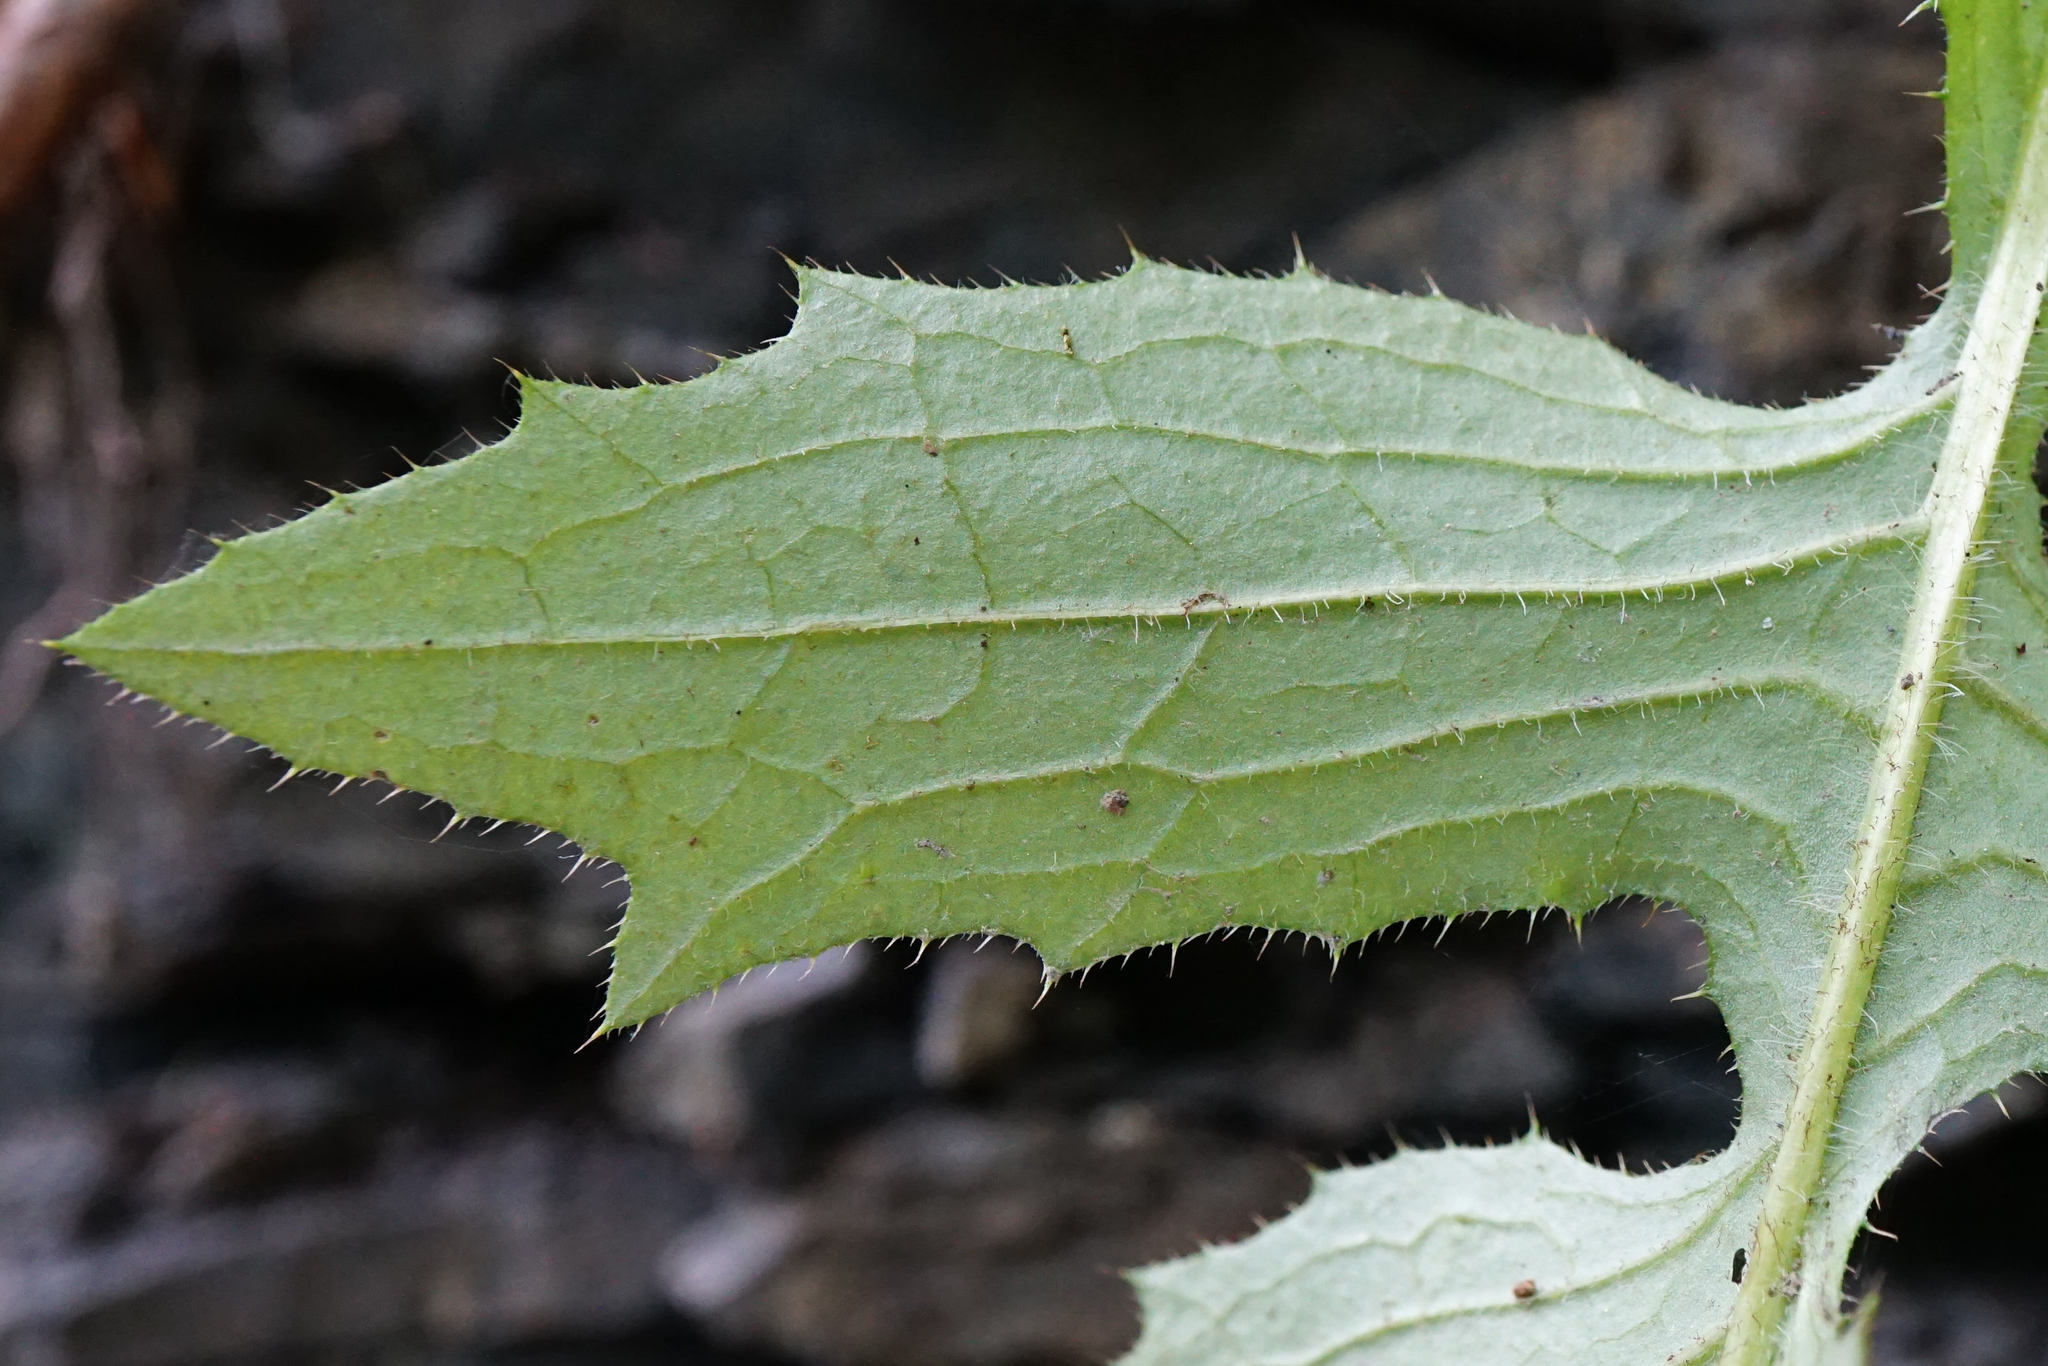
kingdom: Plantae
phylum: Tracheophyta
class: Magnoliopsida
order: Asterales
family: Asteraceae
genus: Cirsium
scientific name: Cirsium erisithales
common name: Yellow thistle
